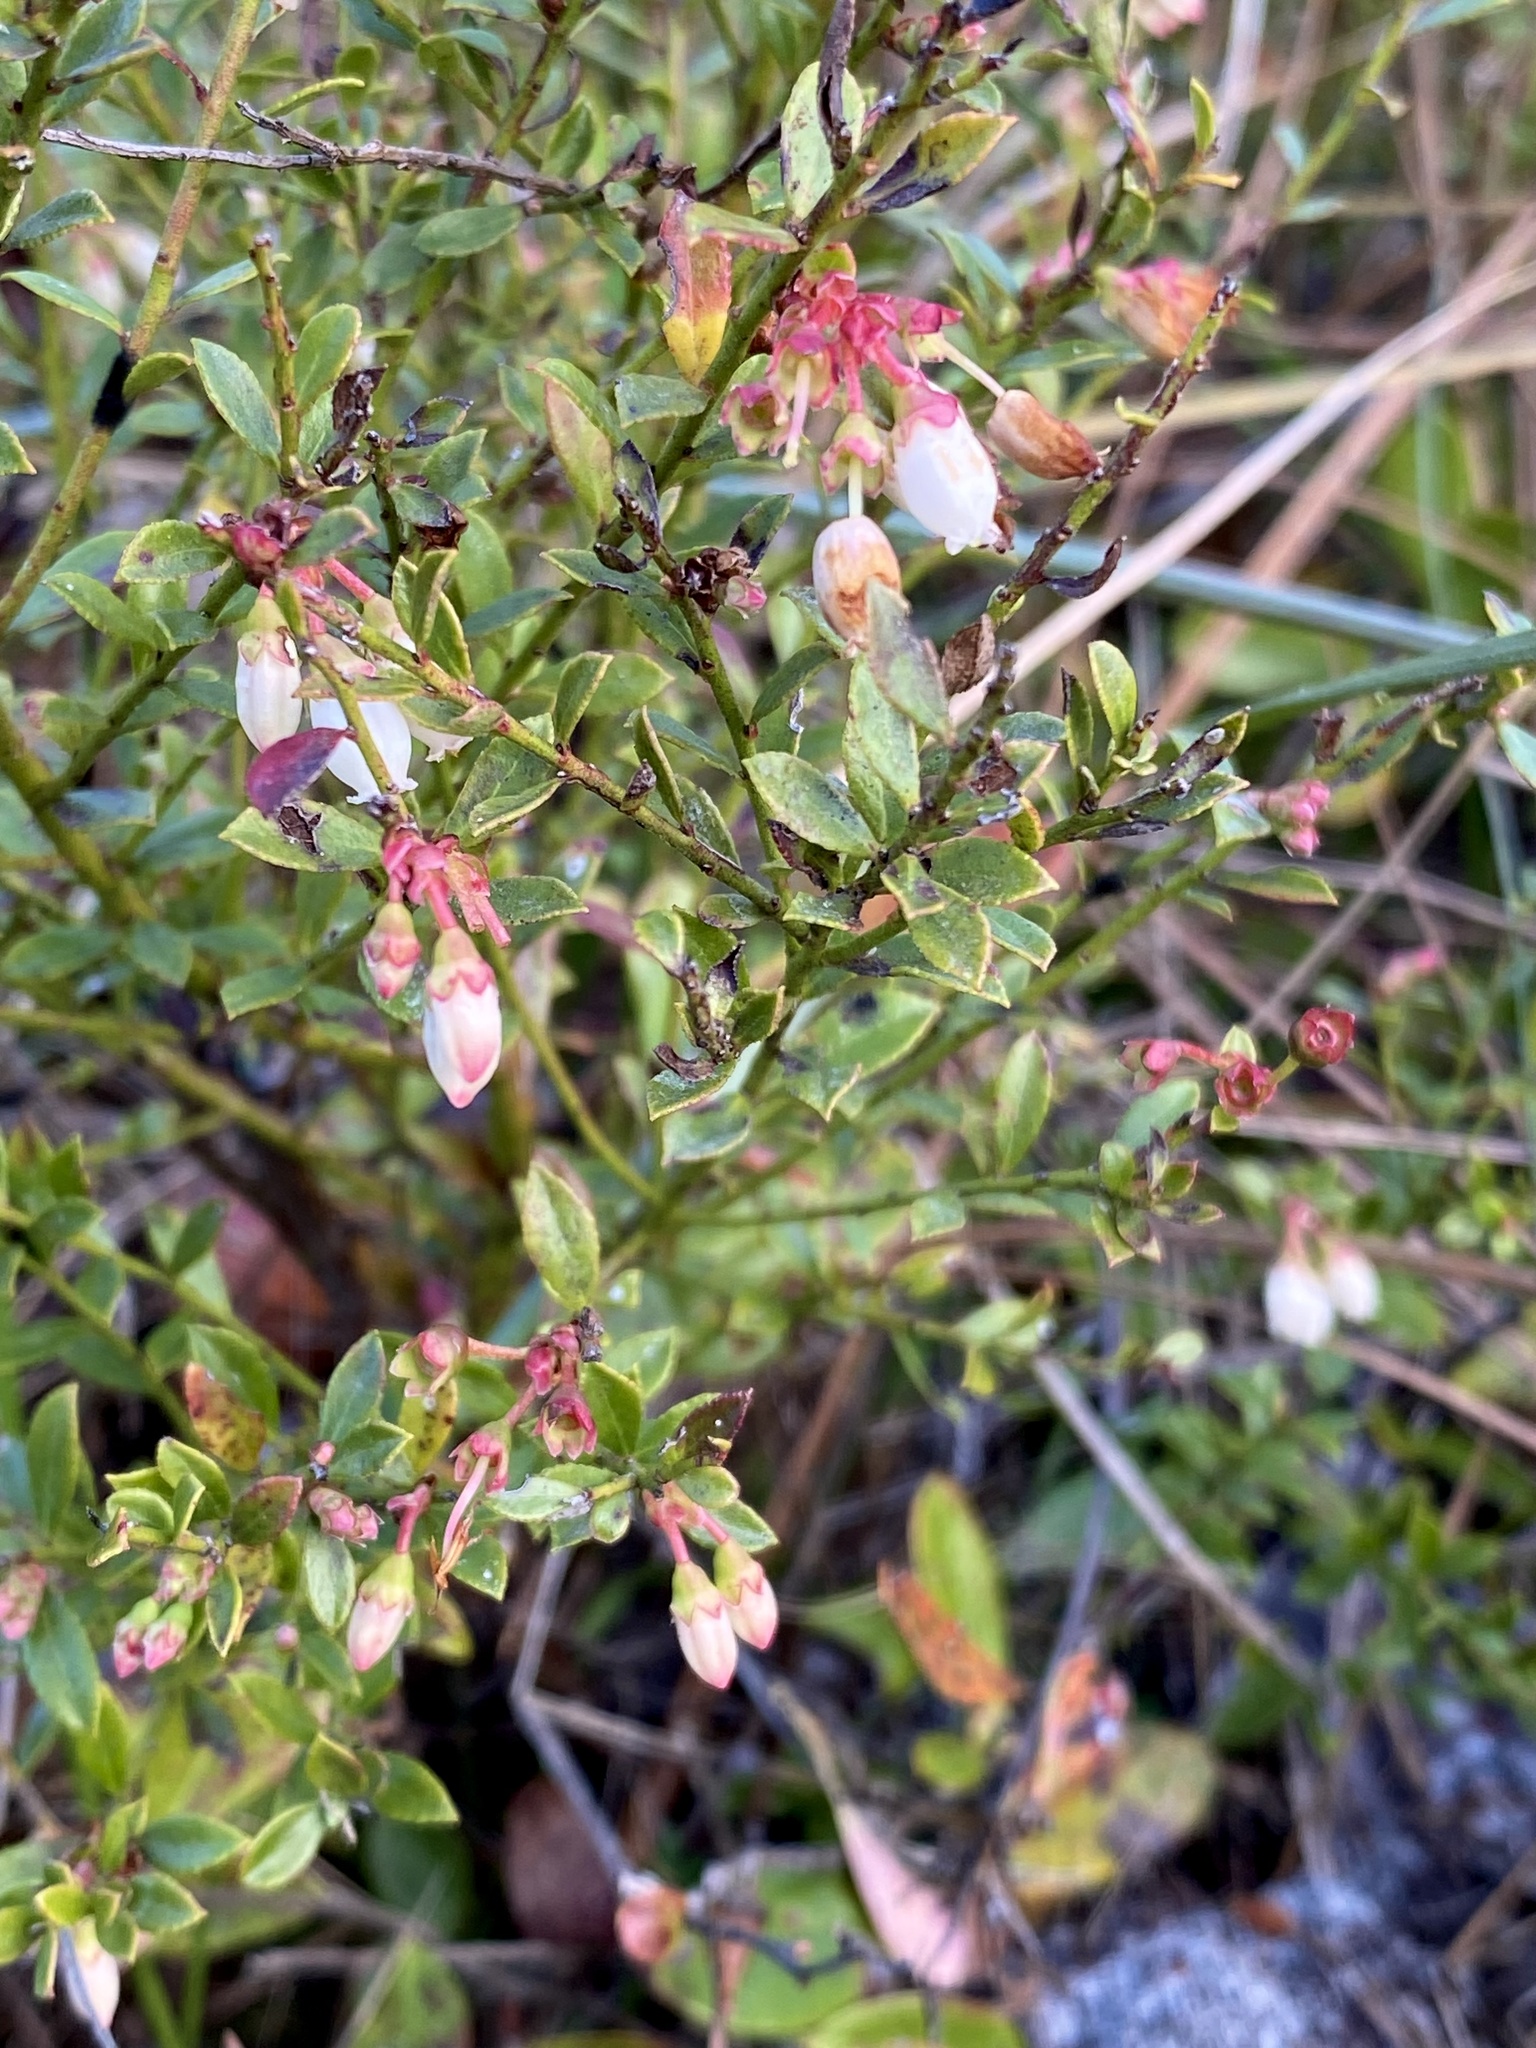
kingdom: Plantae
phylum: Tracheophyta
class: Magnoliopsida
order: Ericales
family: Ericaceae
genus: Vaccinium
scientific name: Vaccinium myrsinites
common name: Evergreen blueberry
